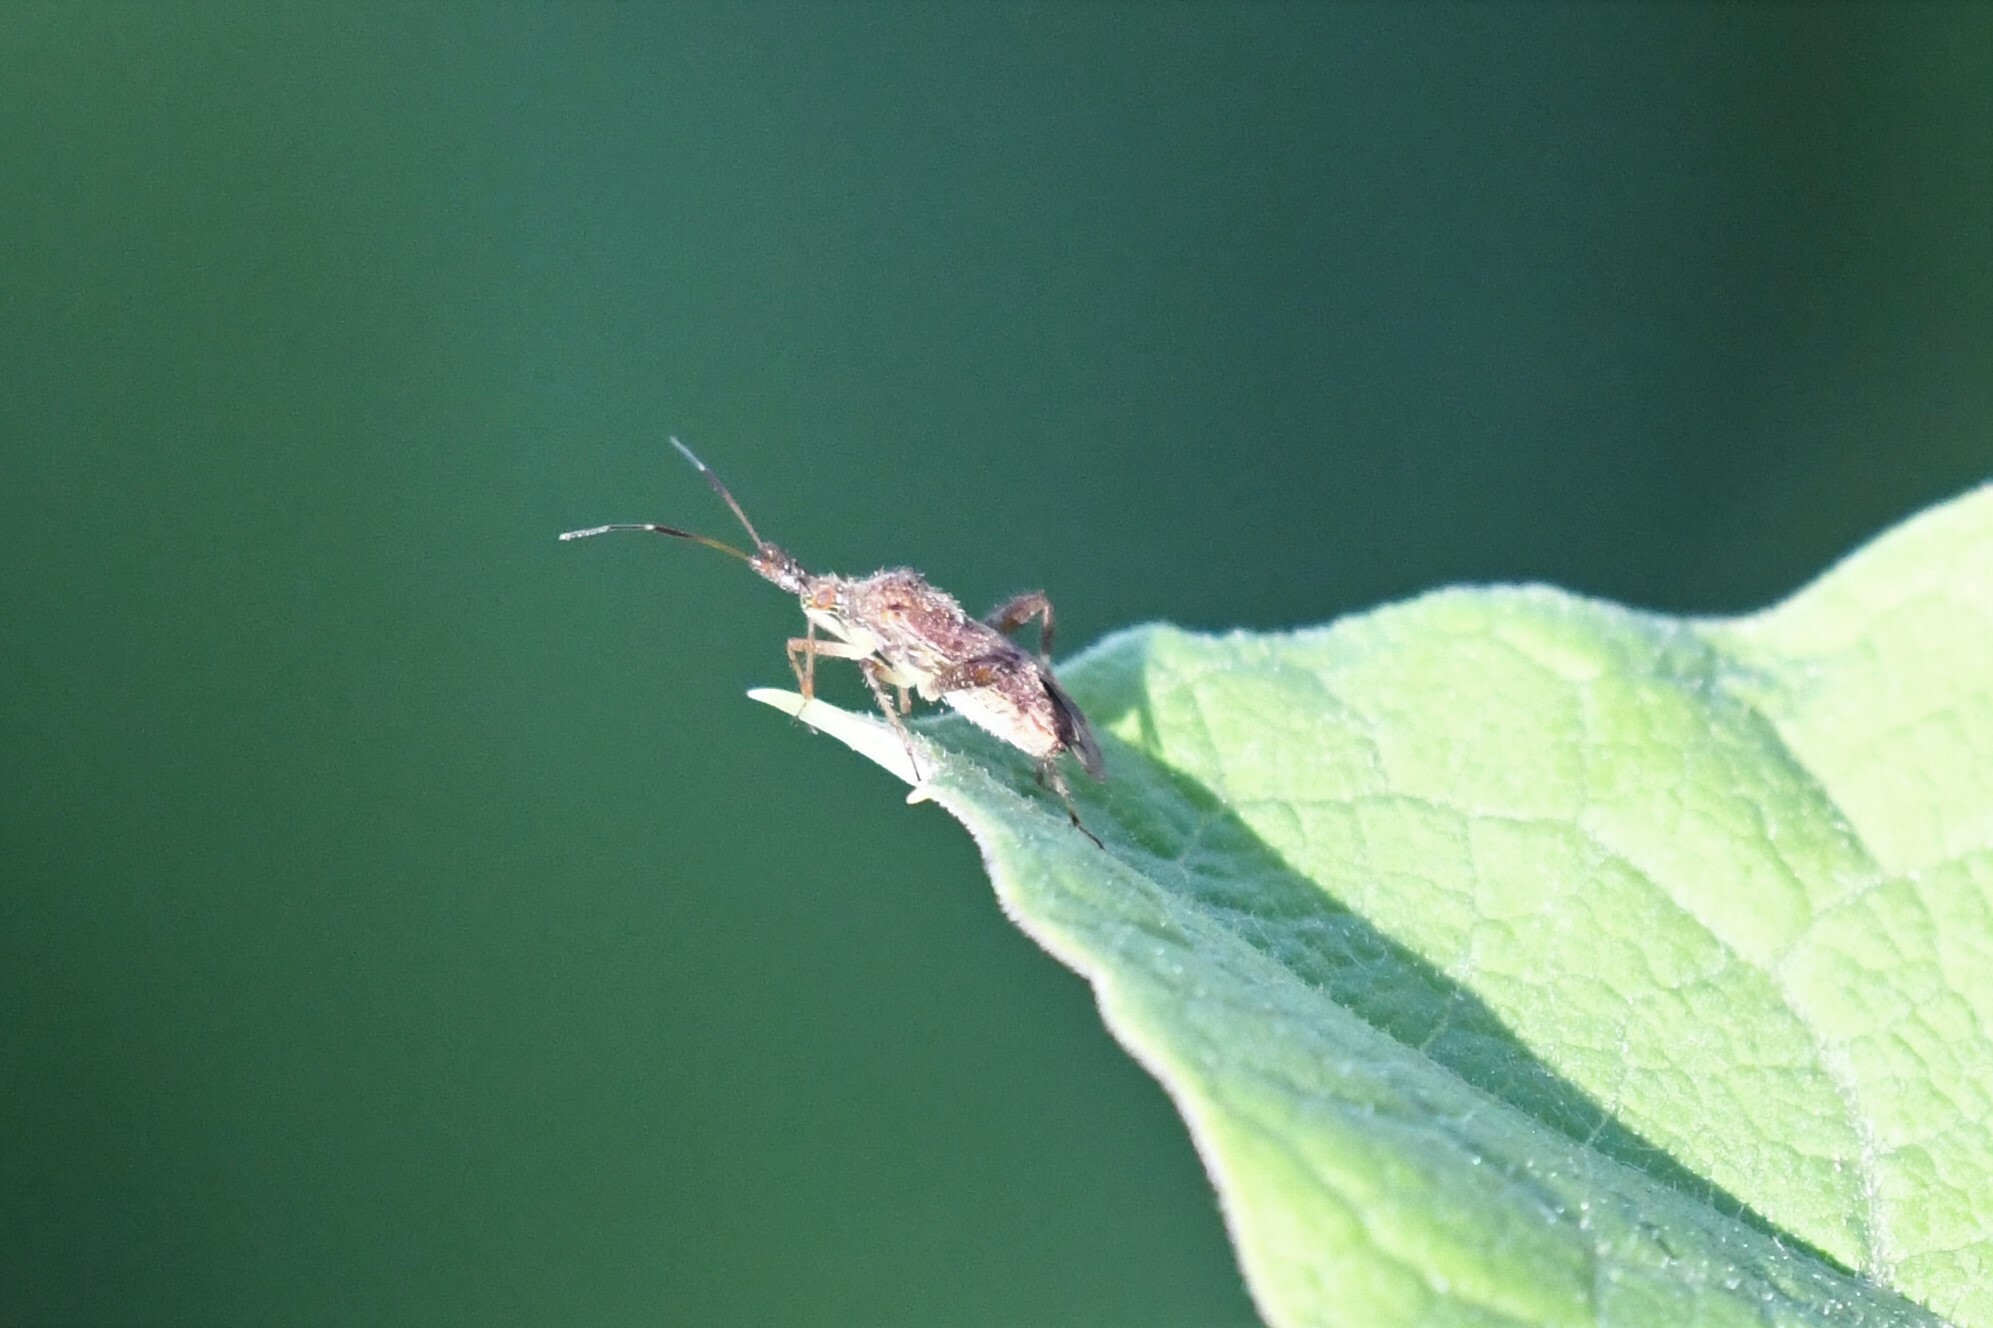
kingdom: Animalia
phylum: Arthropoda
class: Insecta
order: Hemiptera
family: Miridae
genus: Neurocolpus
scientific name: Neurocolpus nubilus
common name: Clouded plant bug
